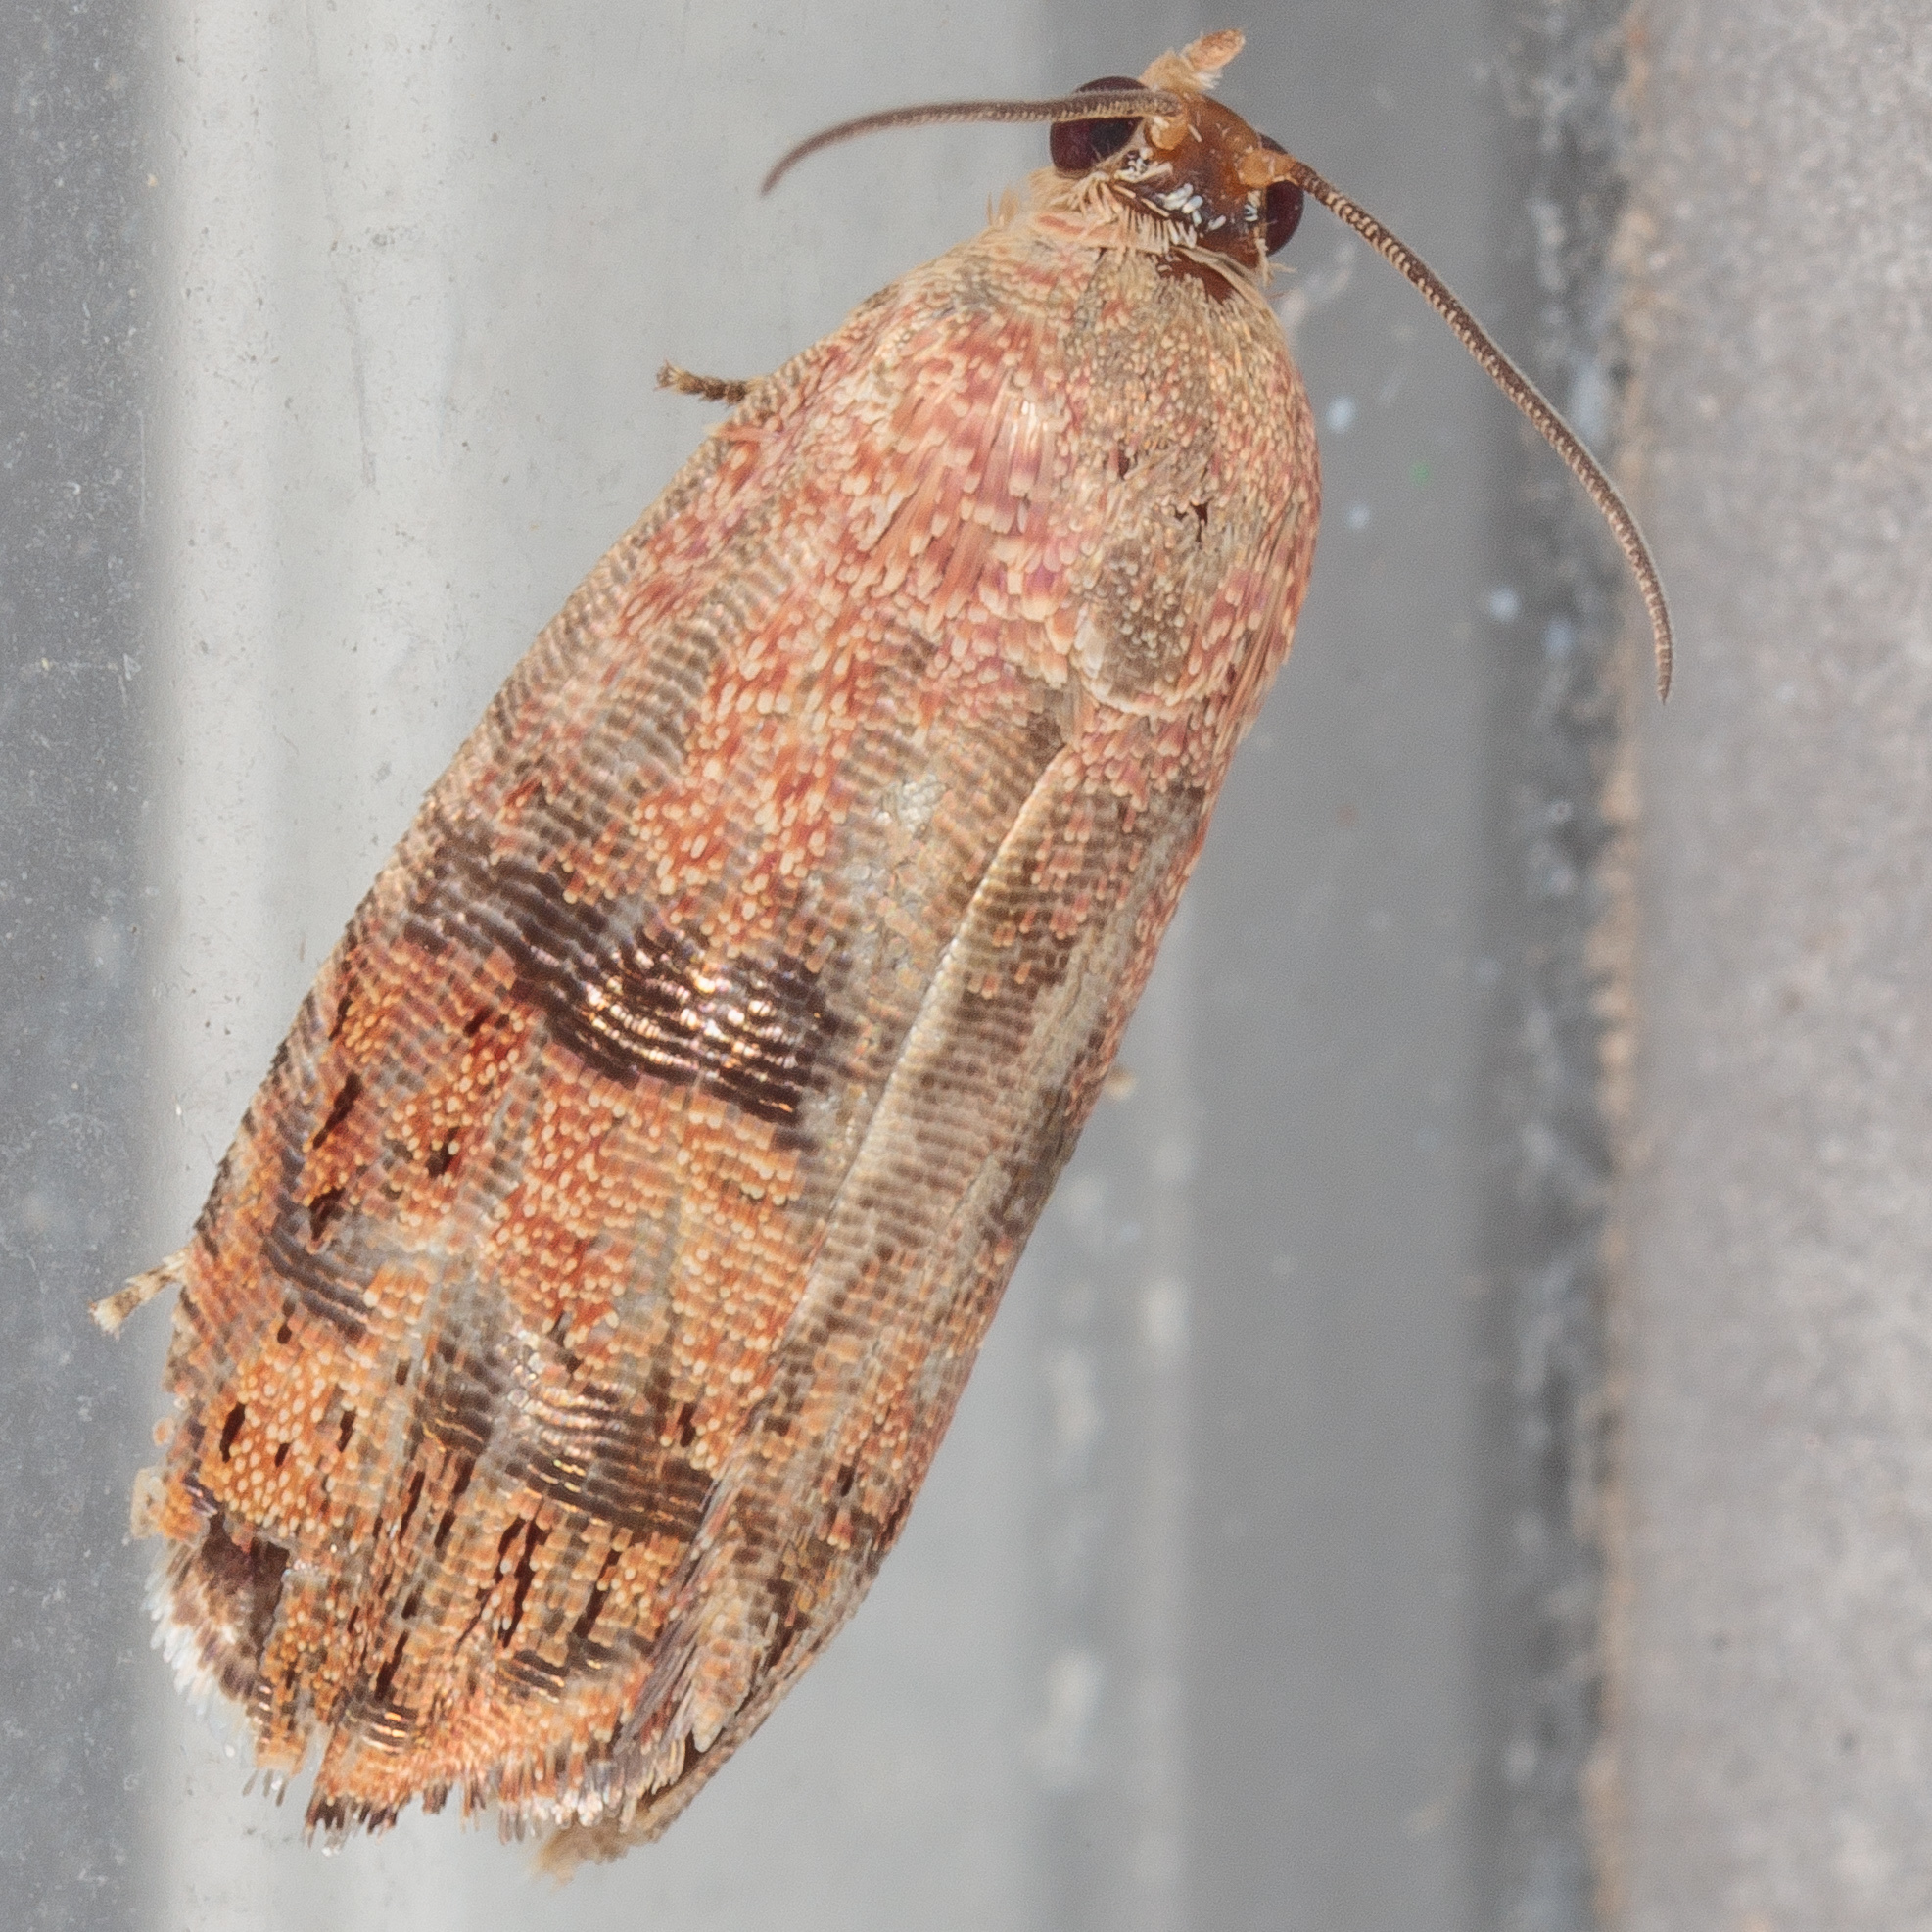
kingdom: Animalia
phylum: Arthropoda
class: Insecta
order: Lepidoptera
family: Tortricidae
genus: Cydia
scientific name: Cydia latiferreana
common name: Filbertworm moth
